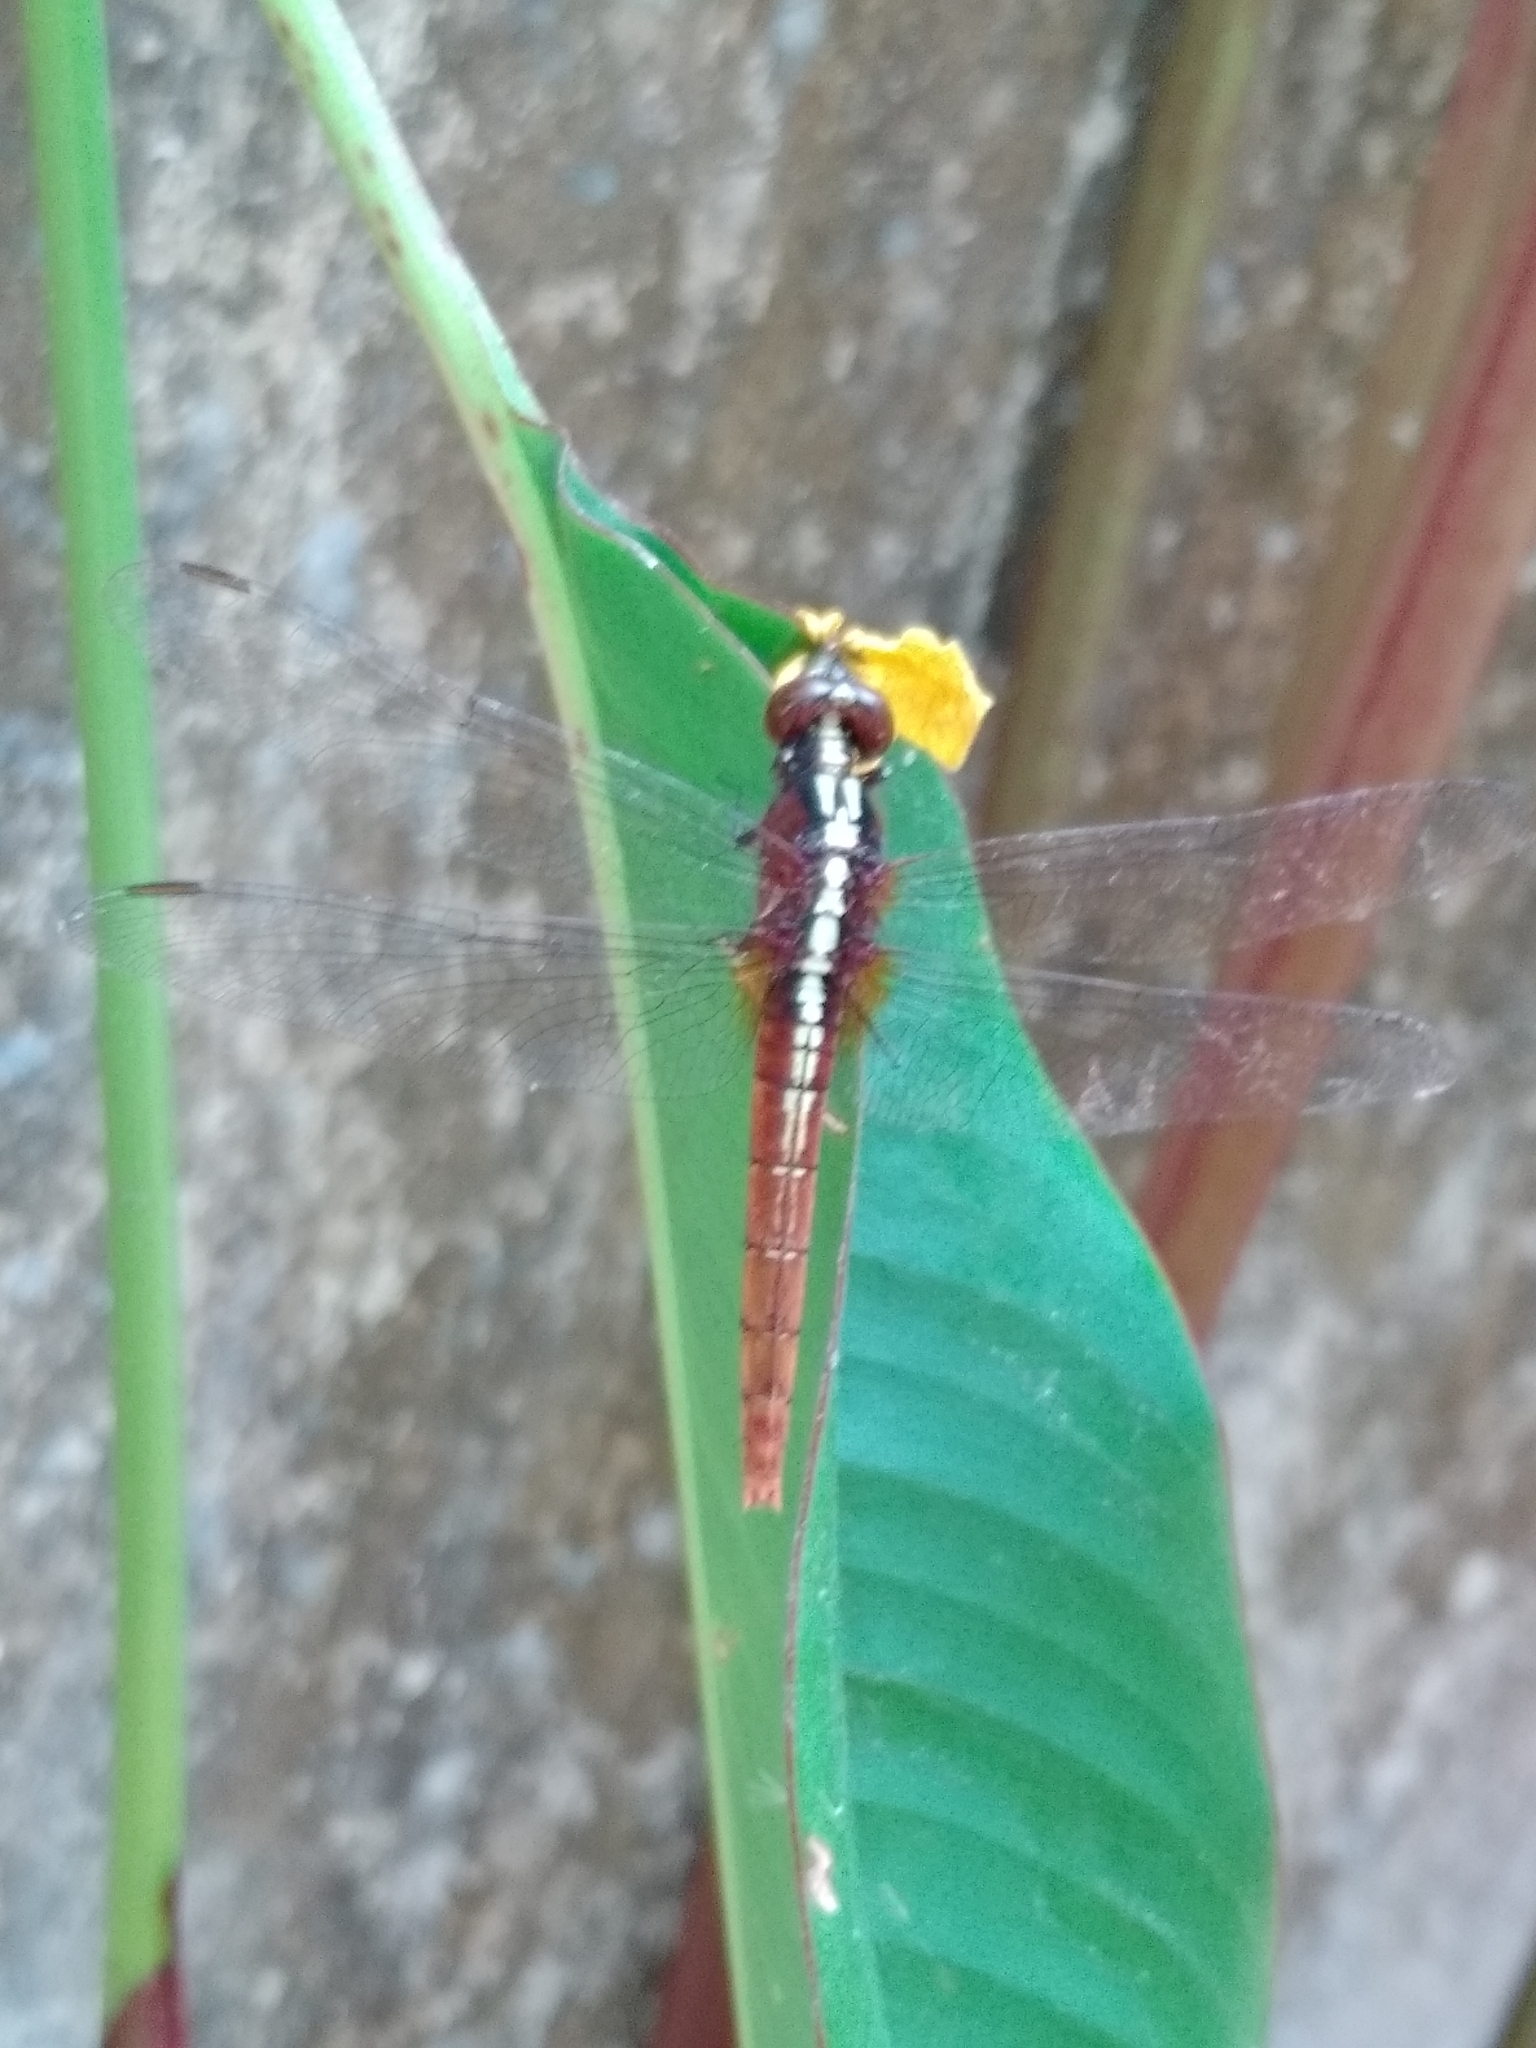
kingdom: Animalia
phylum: Arthropoda
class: Insecta
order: Odonata
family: Libellulidae
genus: Rhodothemis
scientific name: Rhodothemis rufa
